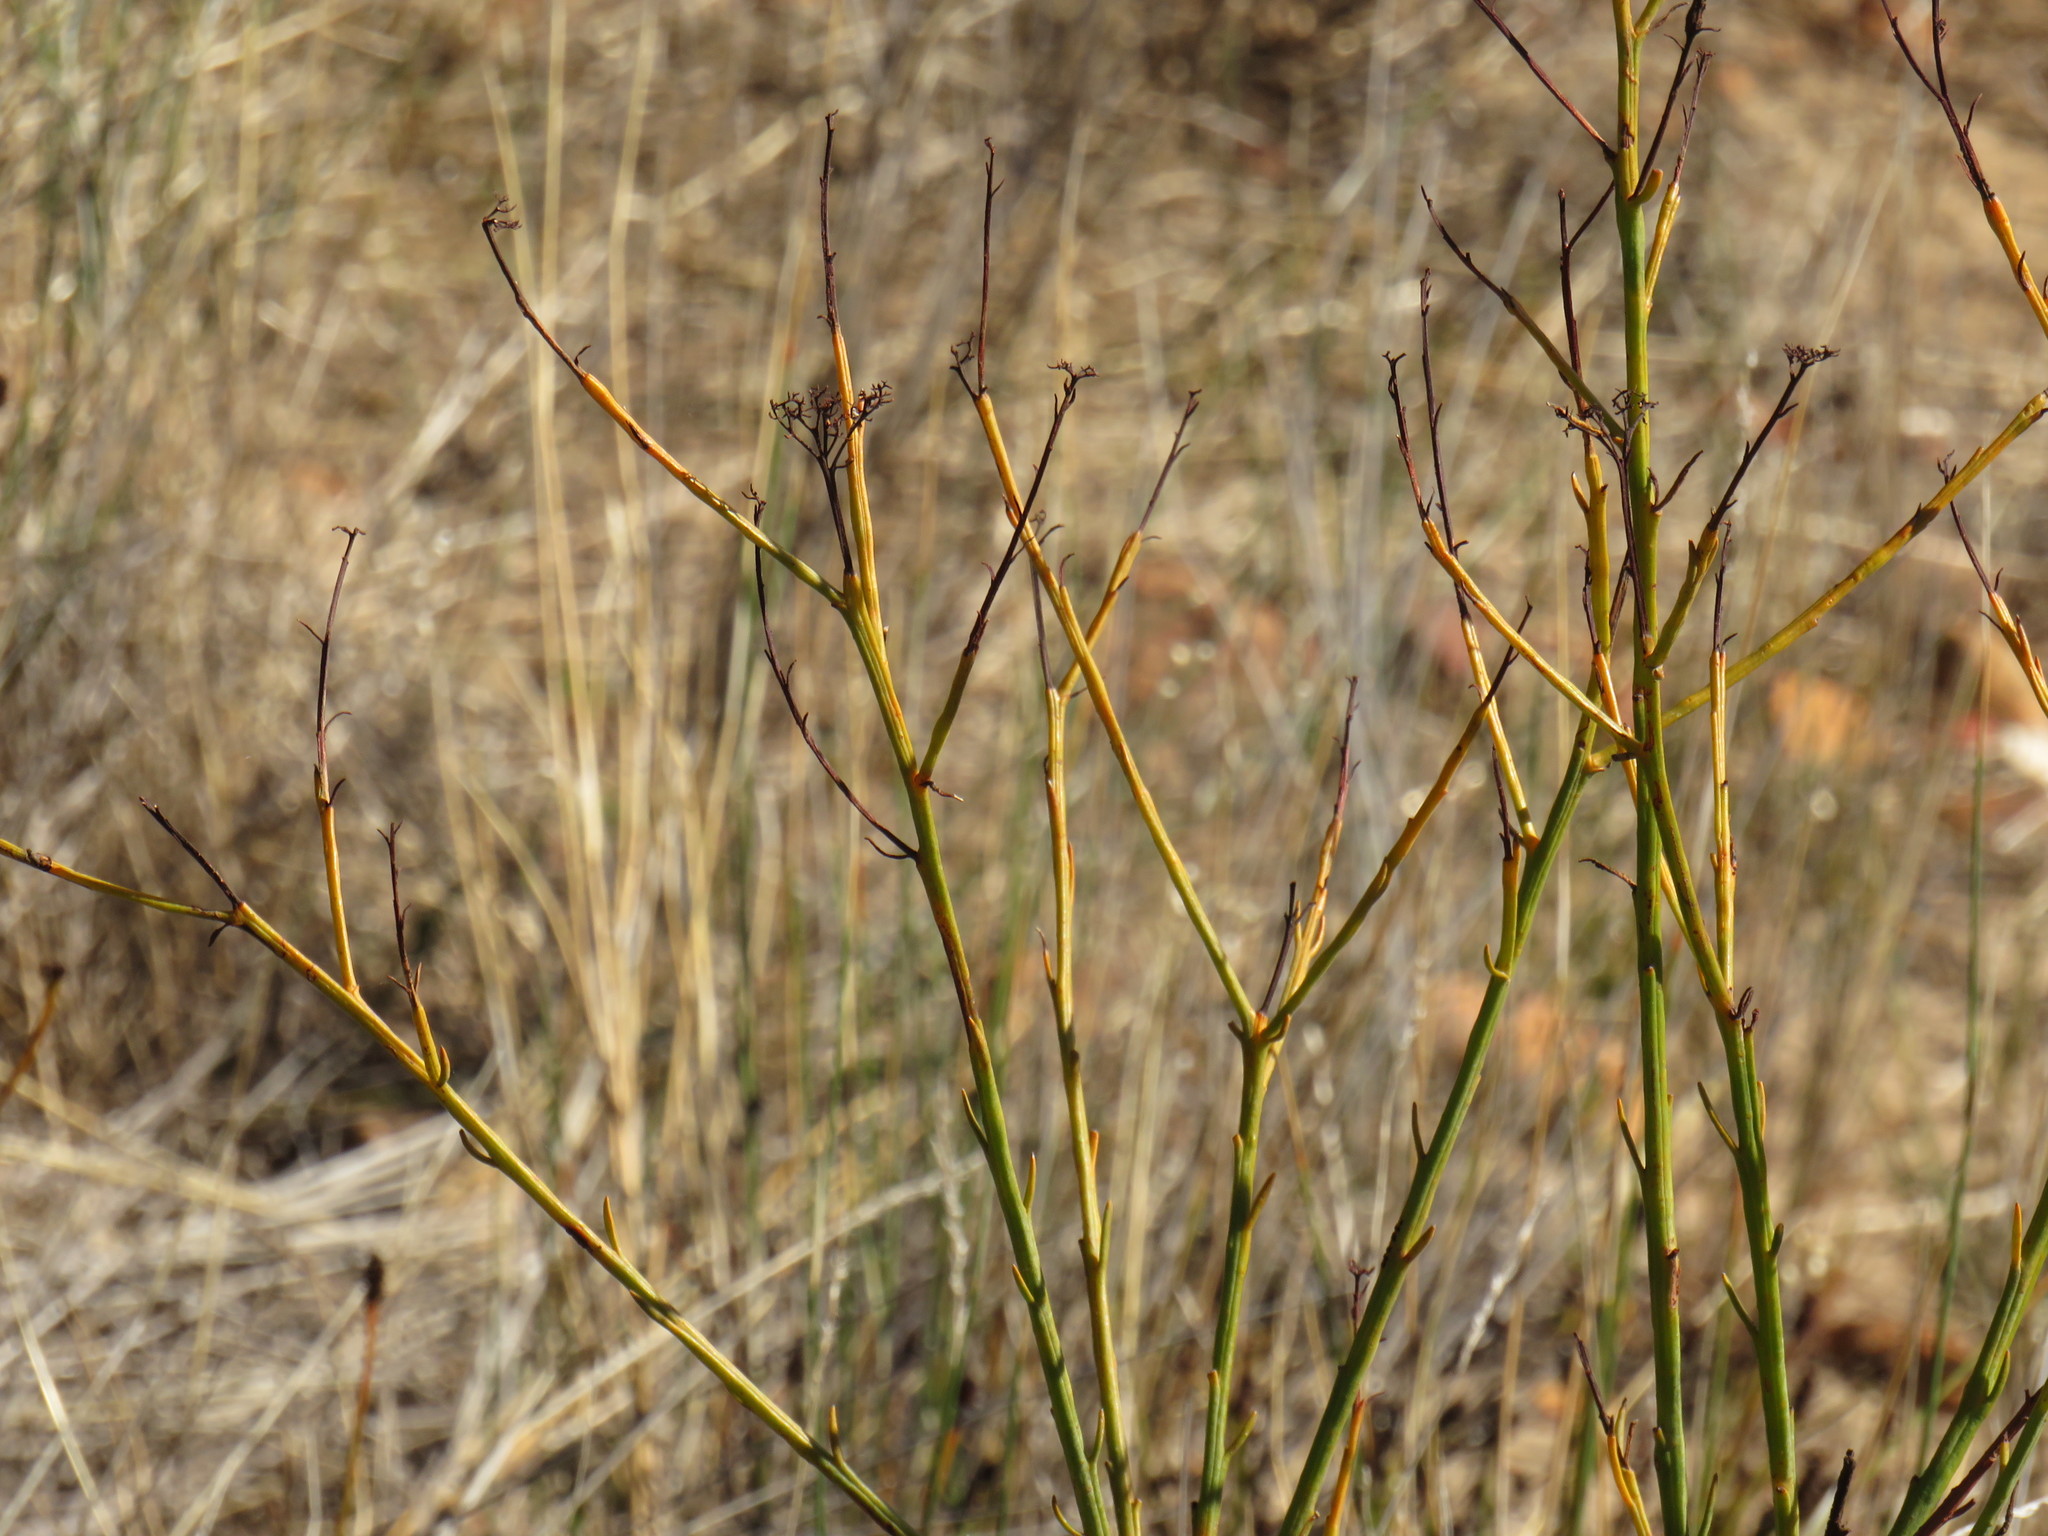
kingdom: Plantae
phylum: Tracheophyta
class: Magnoliopsida
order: Santalales
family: Thesiaceae
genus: Thesium
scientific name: Thesium strictum
